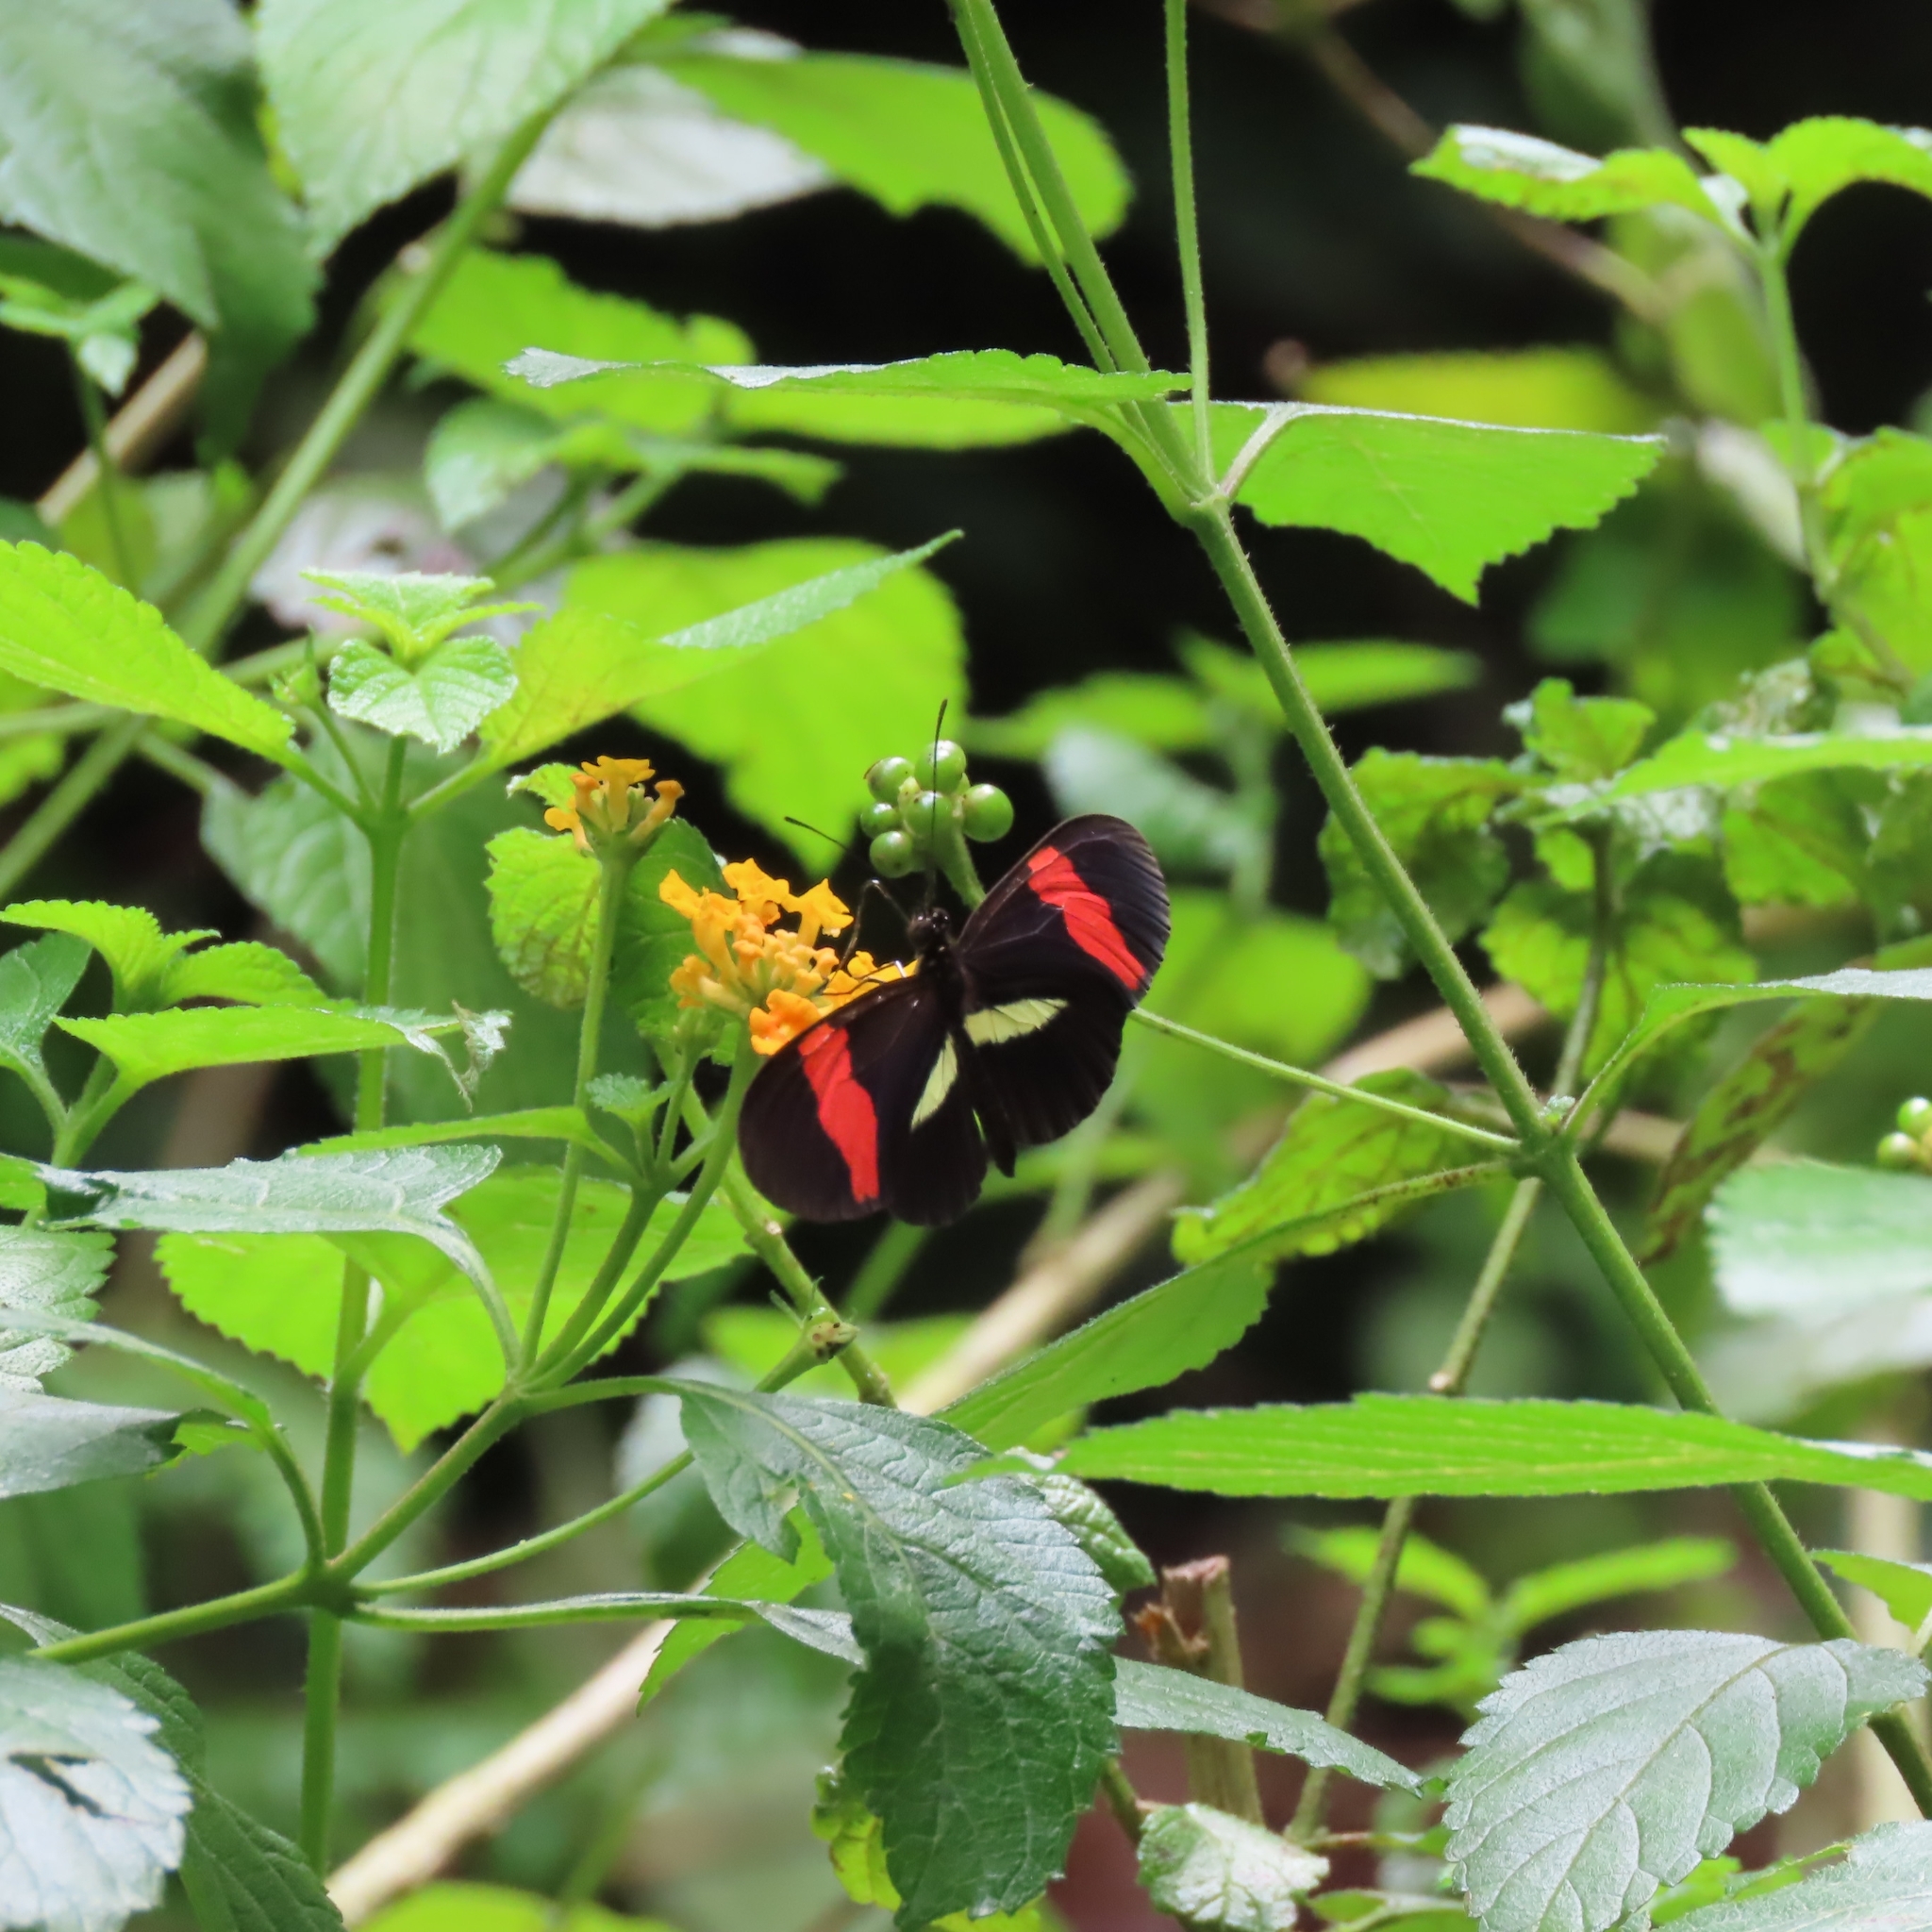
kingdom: Animalia
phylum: Arthropoda
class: Insecta
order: Lepidoptera
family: Nymphalidae
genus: Tirumala
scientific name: Tirumala petiverana
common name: Blue monarch
